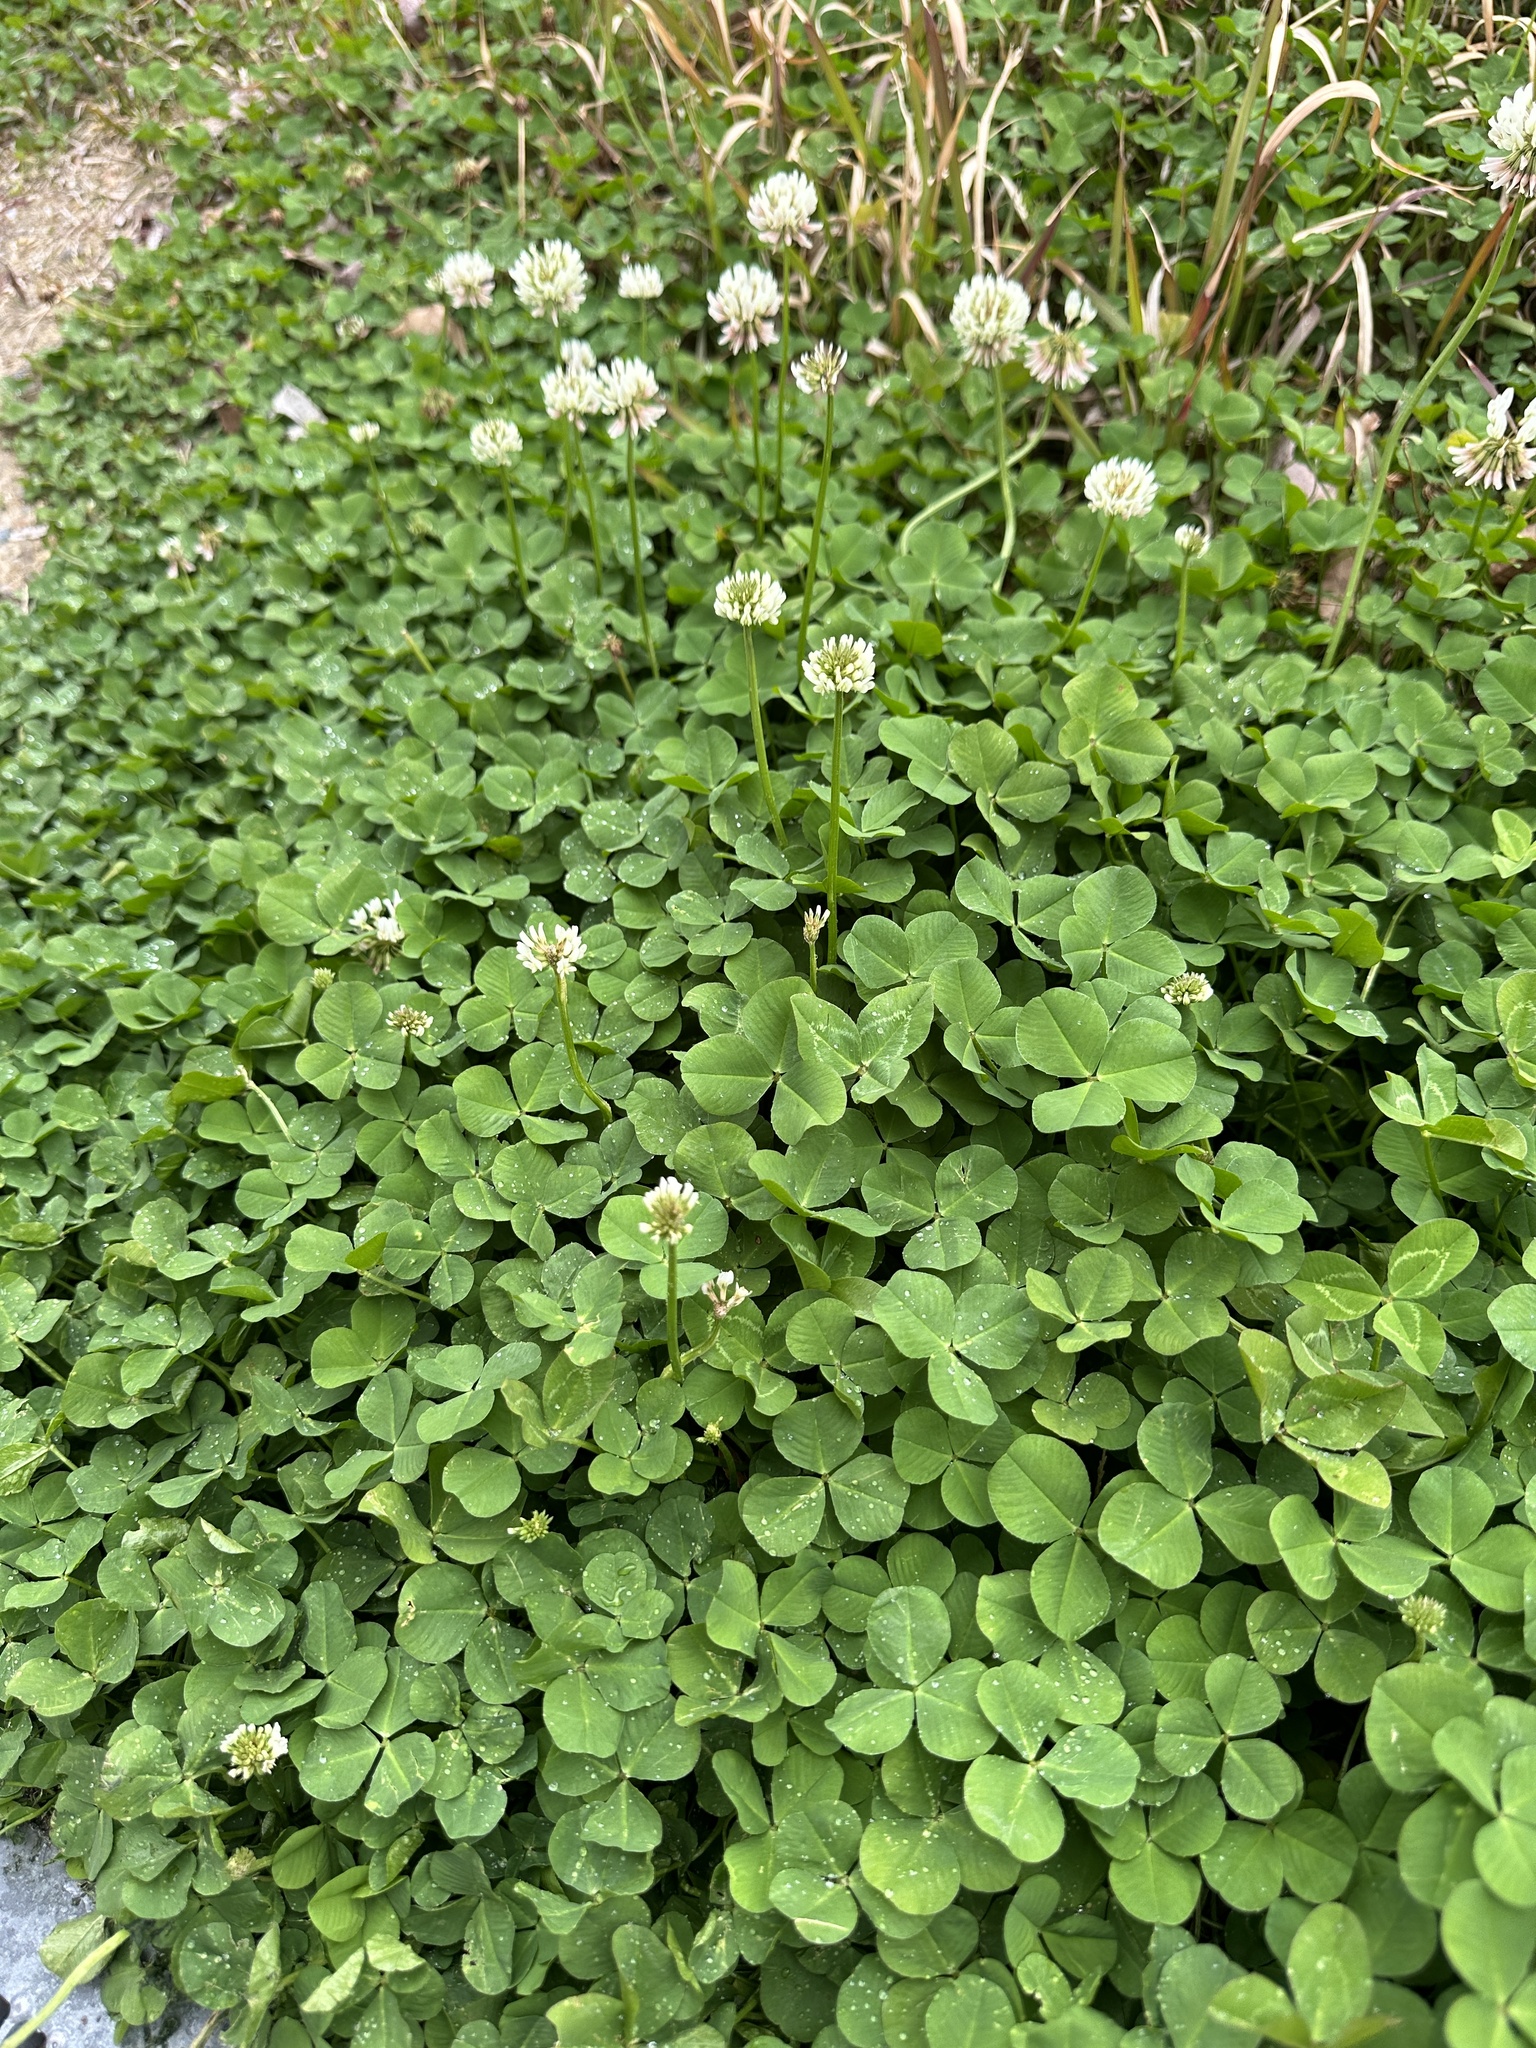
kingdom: Plantae
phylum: Tracheophyta
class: Magnoliopsida
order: Fabales
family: Fabaceae
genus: Trifolium
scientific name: Trifolium repens
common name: White clover
